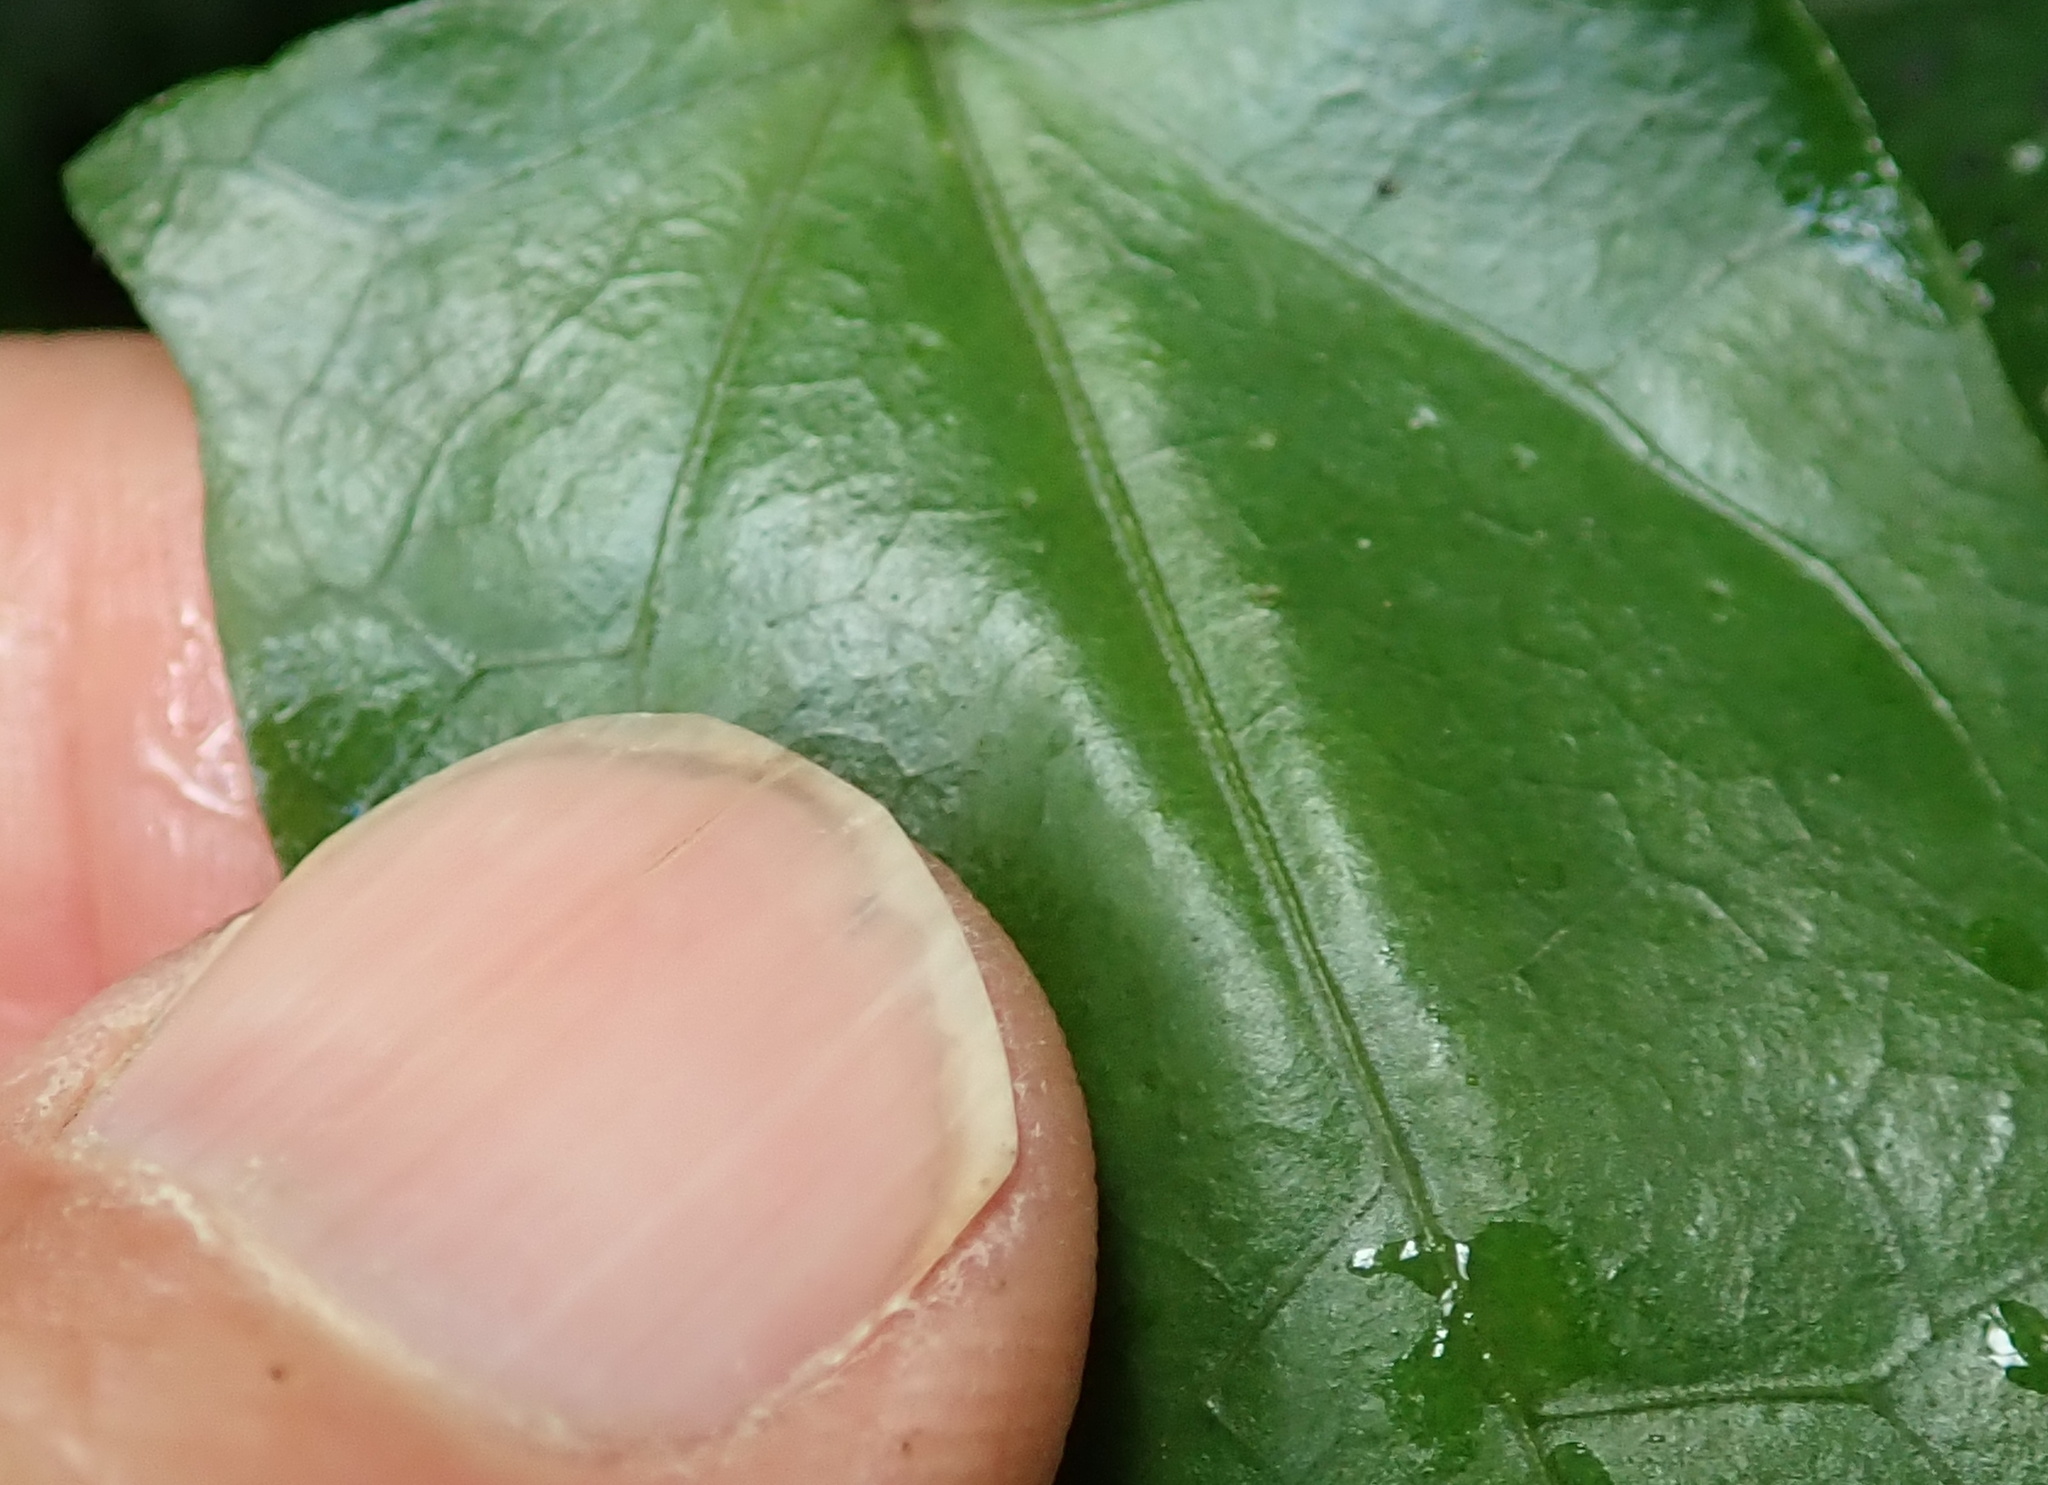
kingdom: Plantae
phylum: Tracheophyta
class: Magnoliopsida
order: Lamiales
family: Acanthaceae
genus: Thunbergia
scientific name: Thunbergia dregeana
